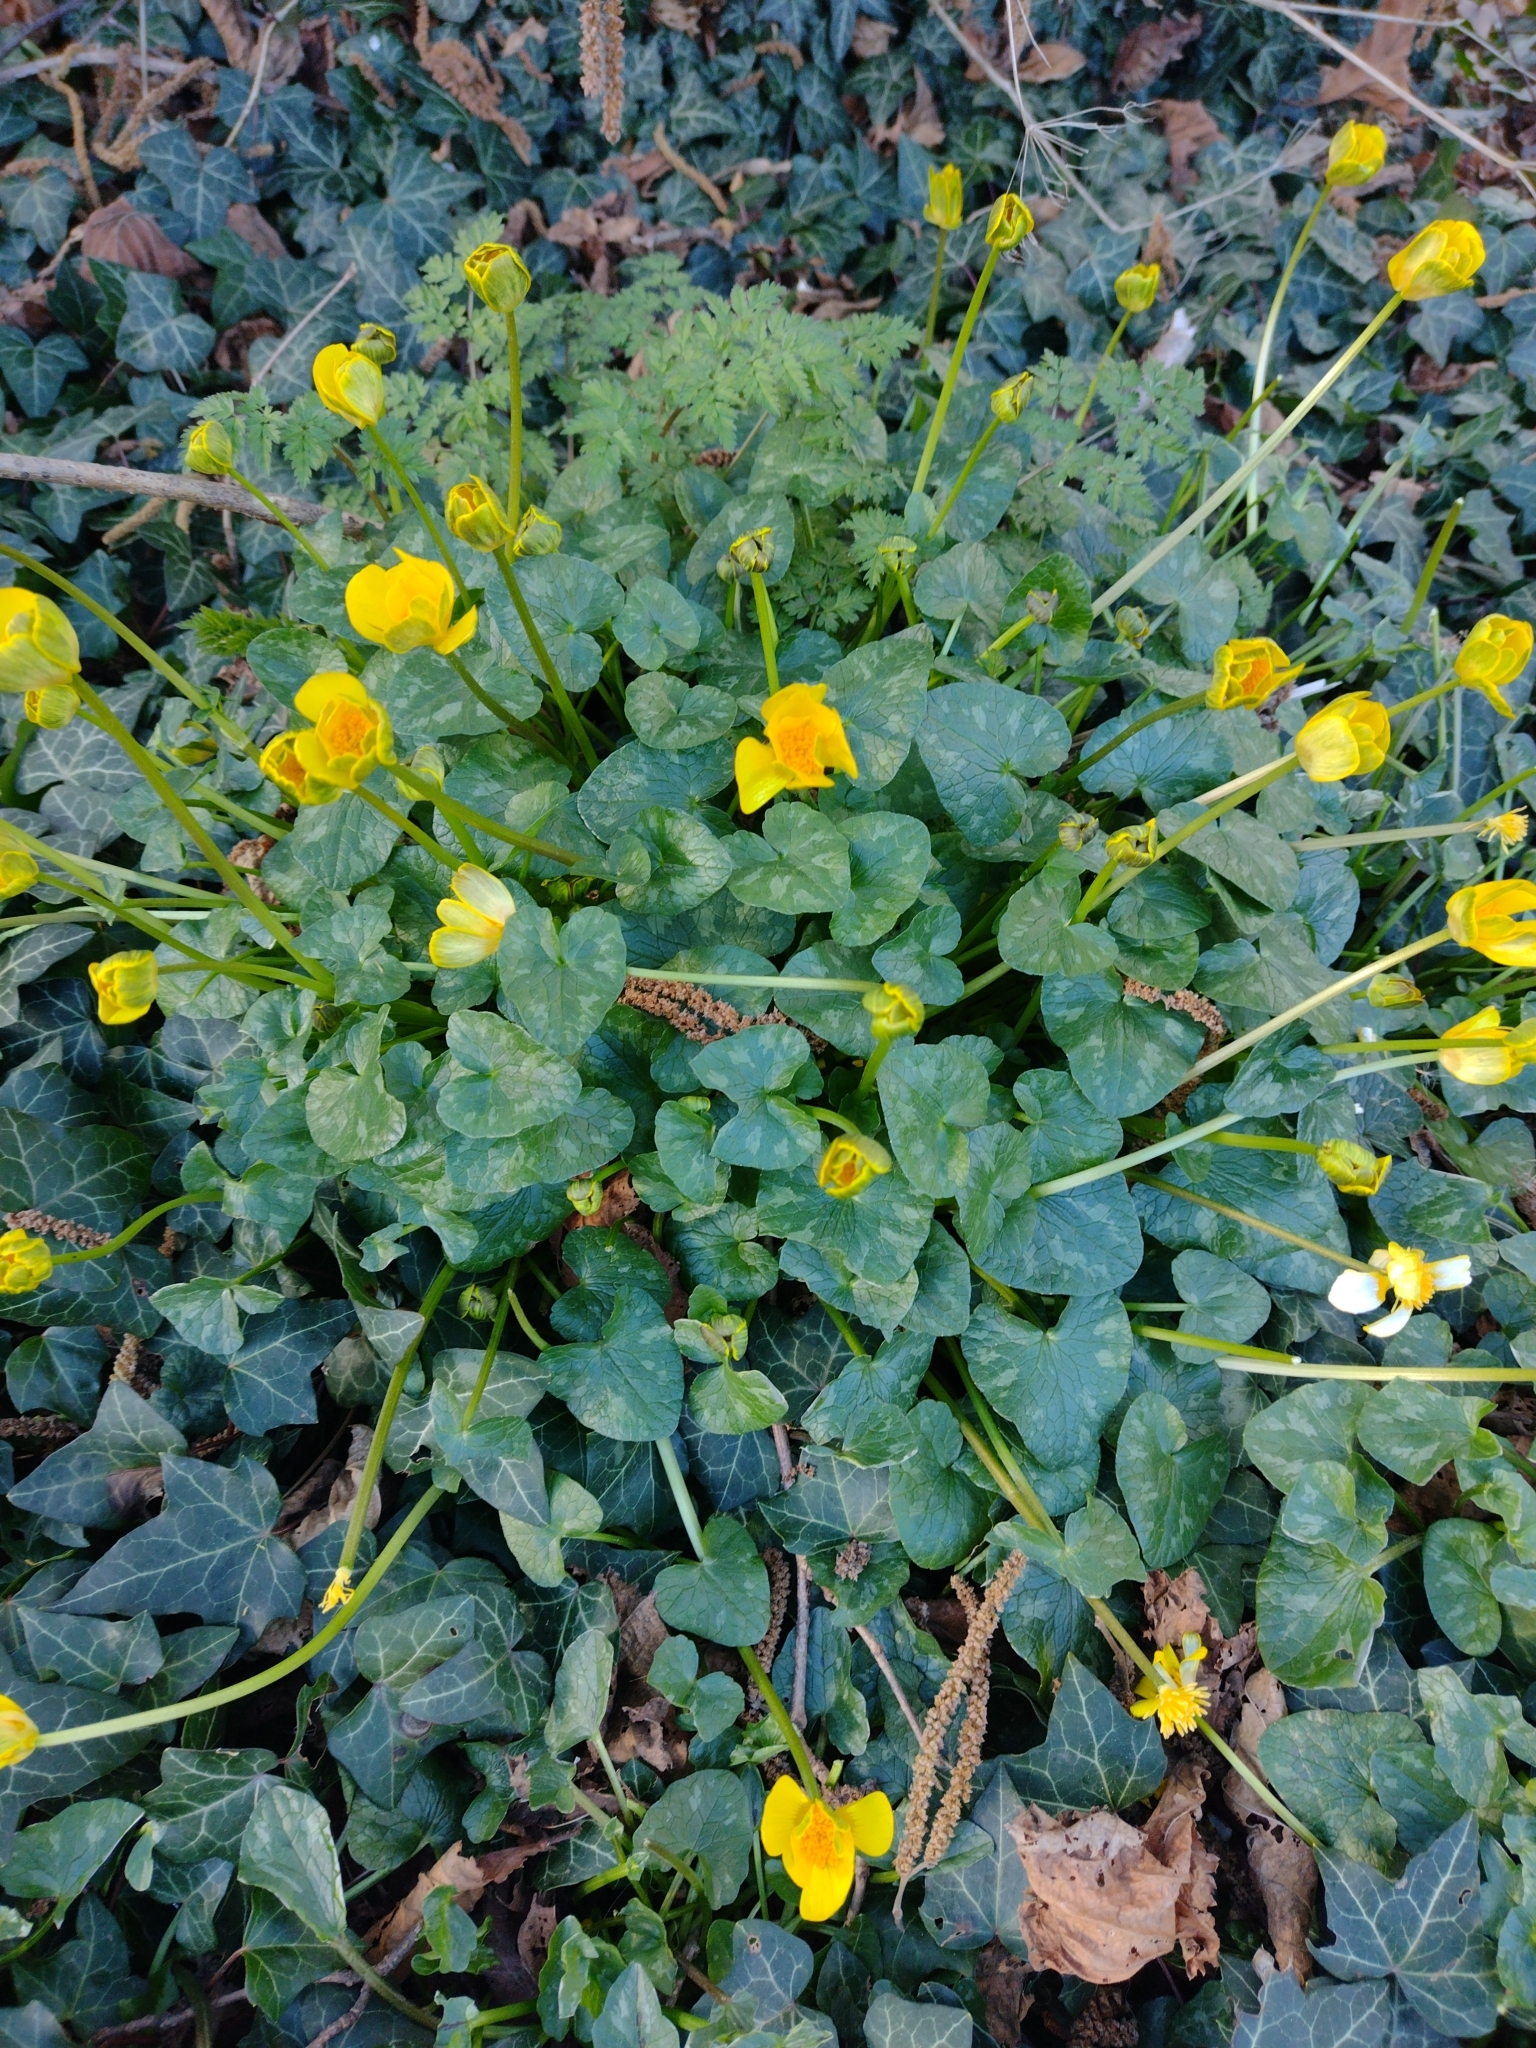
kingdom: Plantae
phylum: Tracheophyta
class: Magnoliopsida
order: Ranunculales
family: Ranunculaceae
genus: Ficaria
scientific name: Ficaria verna
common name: Lesser celandine
